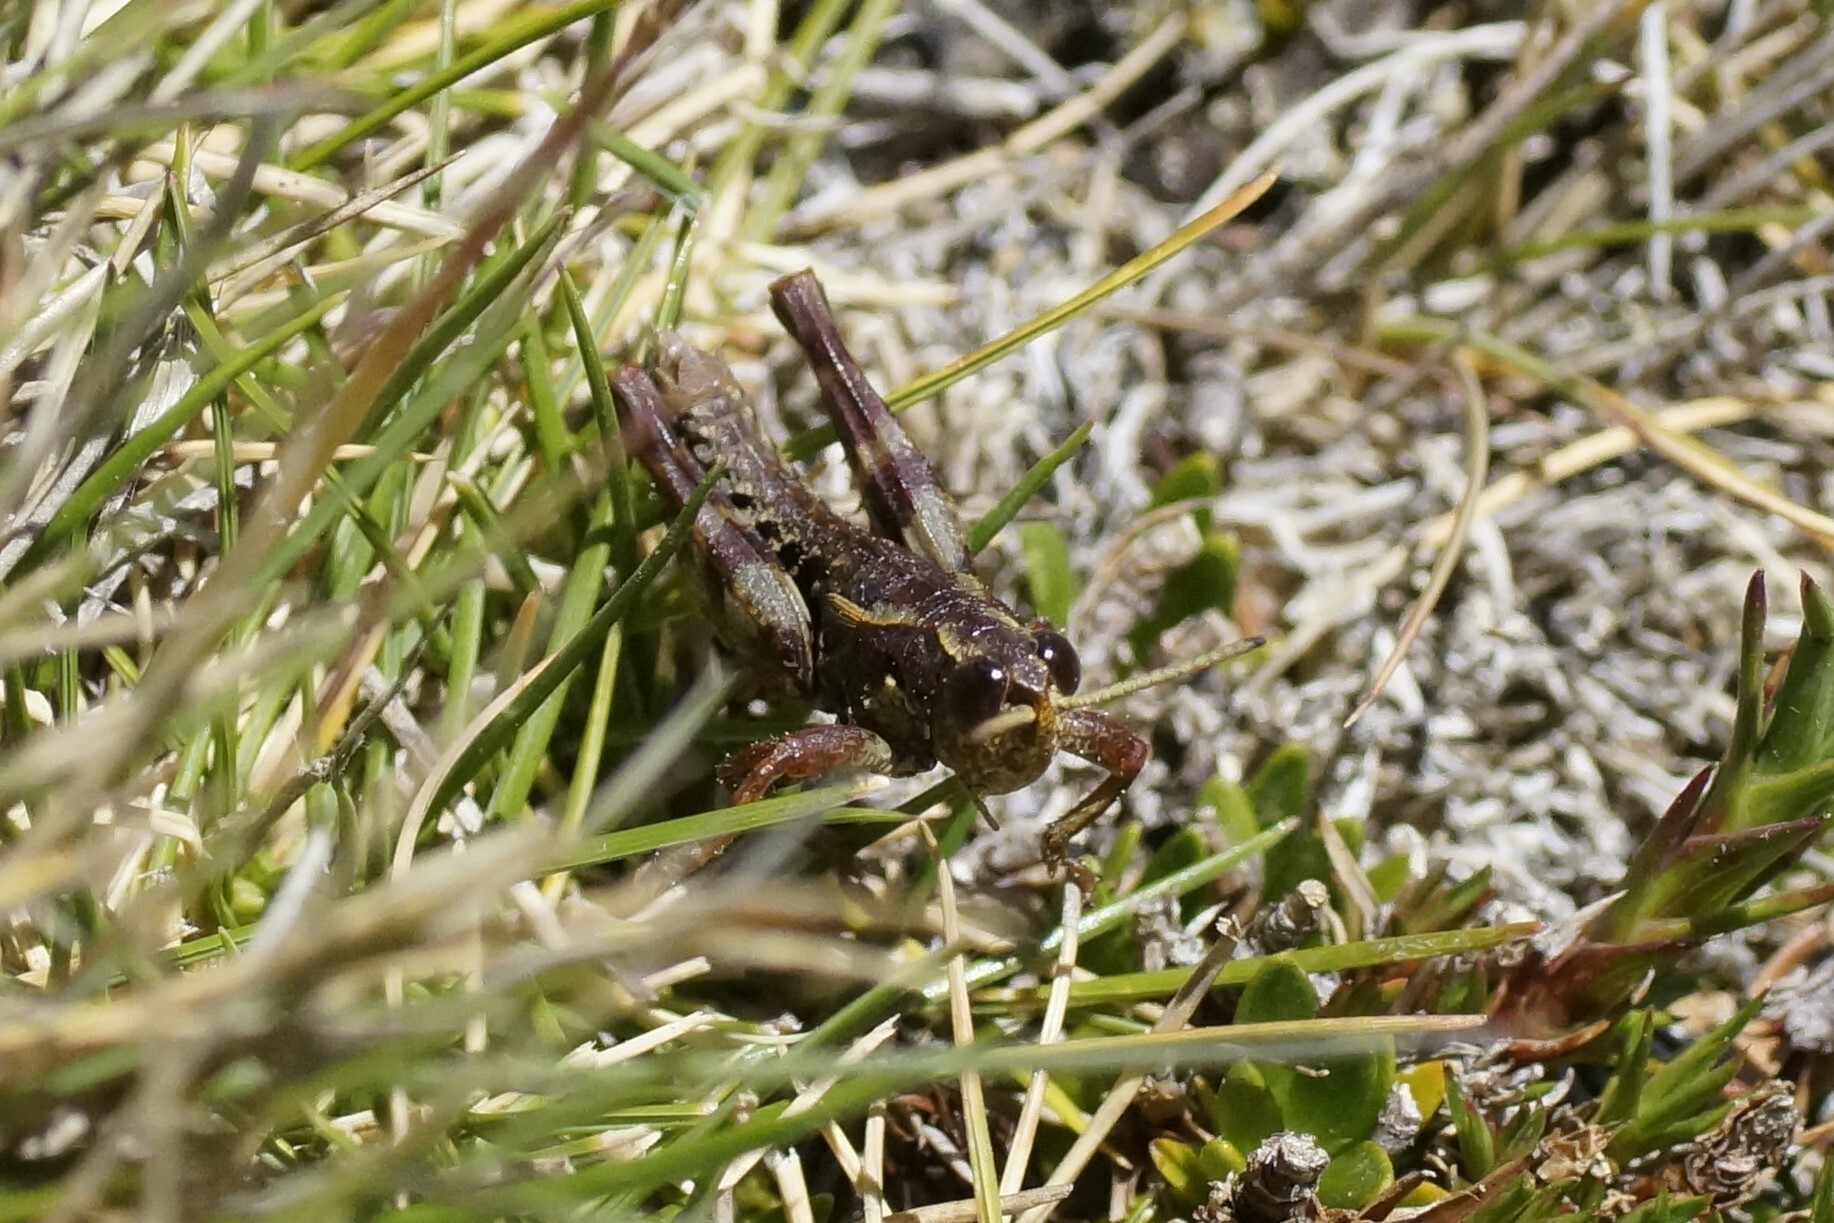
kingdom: Animalia
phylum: Arthropoda
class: Insecta
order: Orthoptera
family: Acrididae
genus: Tasmaniacris
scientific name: Tasmaniacris tasmaniensis
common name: Tasmanian grasshopper
